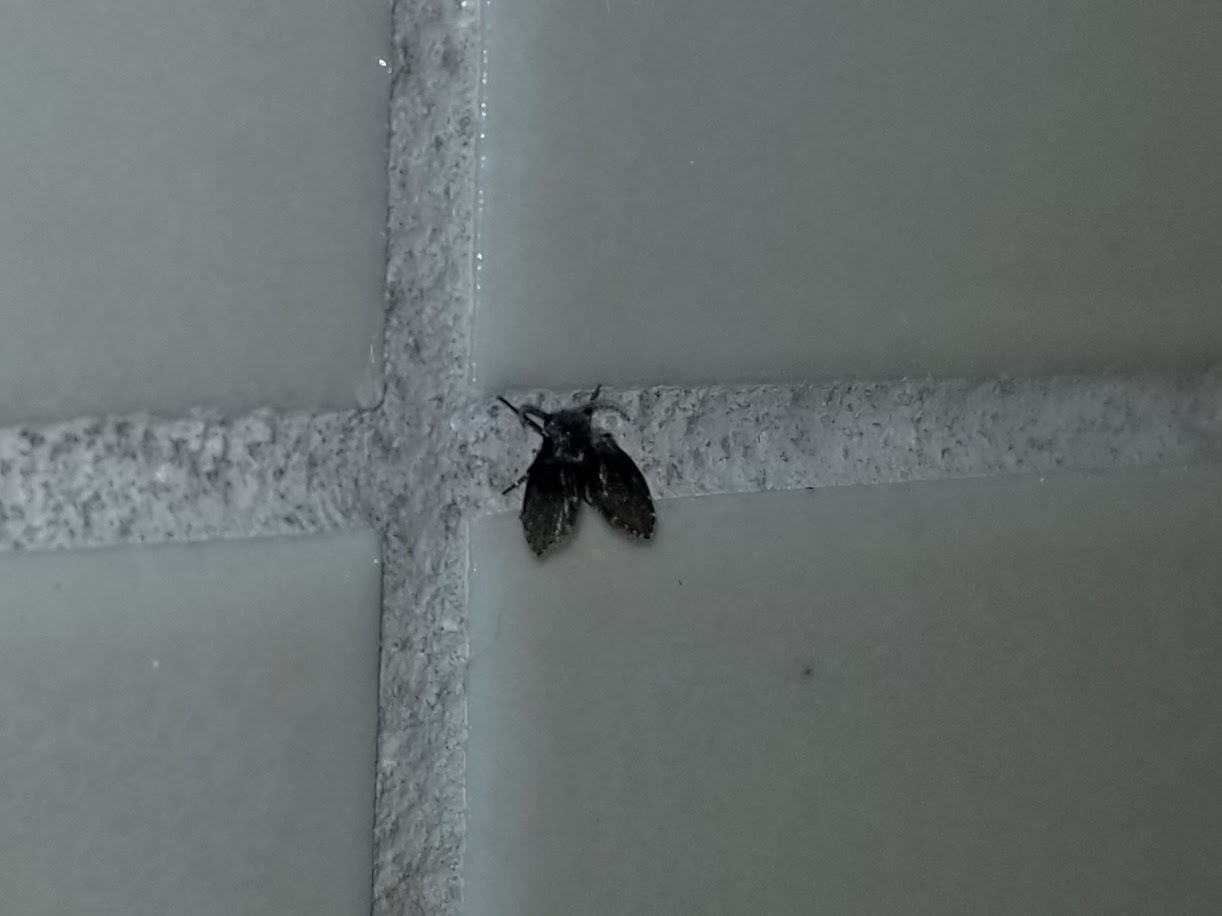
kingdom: Animalia
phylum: Arthropoda
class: Insecta
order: Diptera
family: Psychodidae
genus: Clogmia
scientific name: Clogmia albipunctatus
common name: White-spotted moth fly
